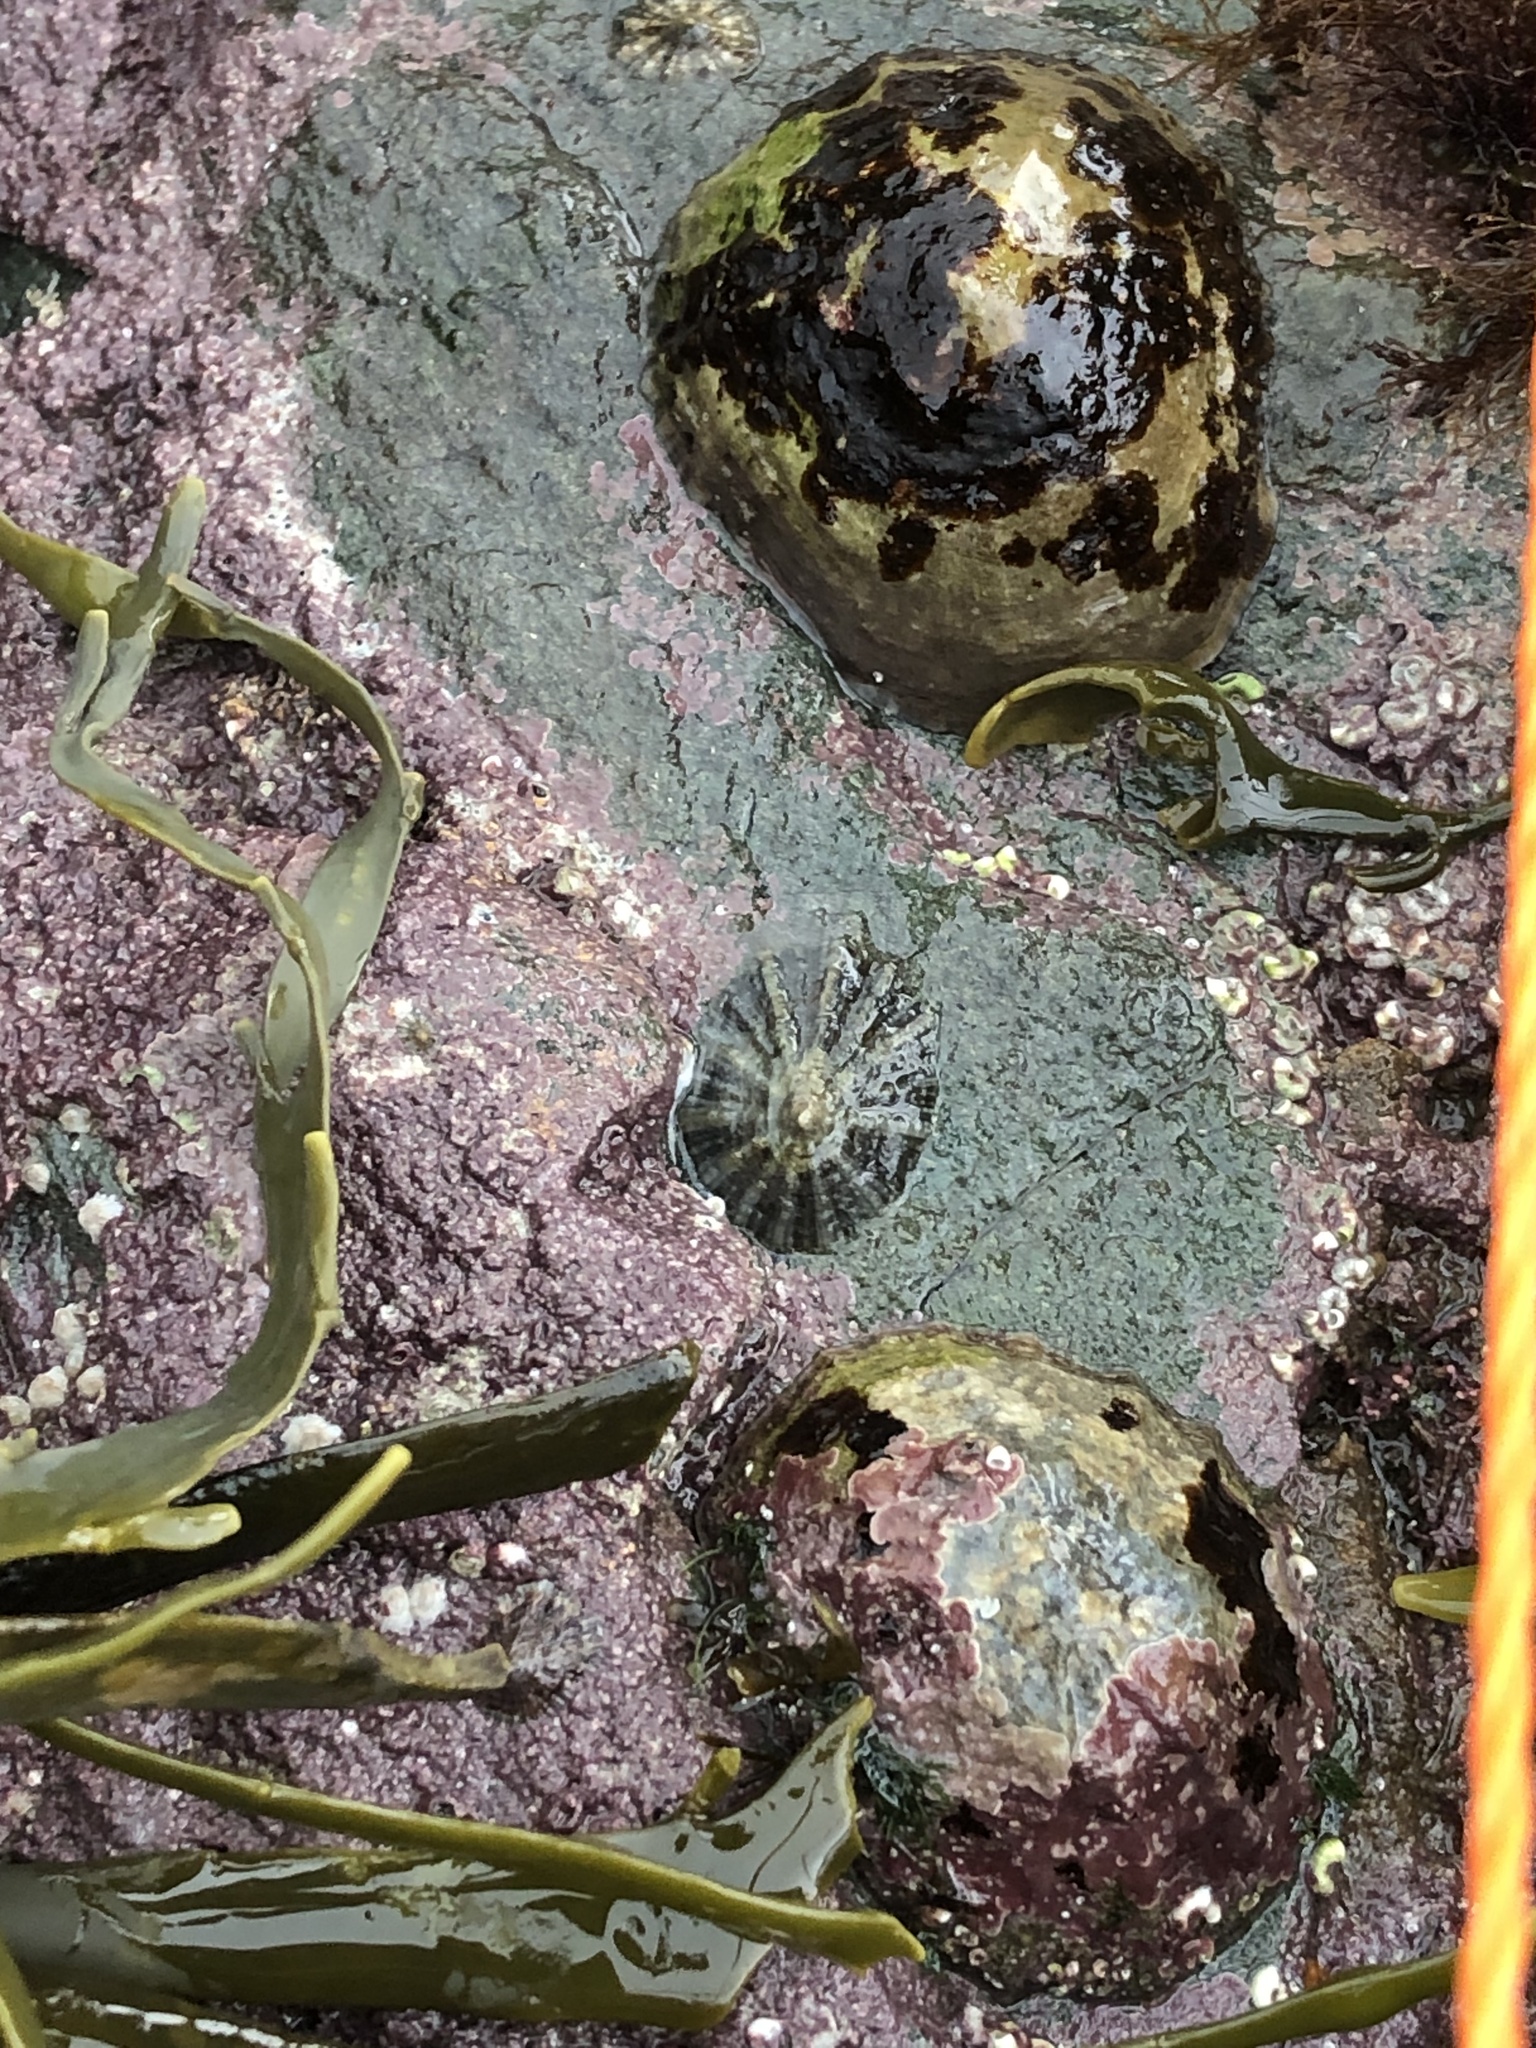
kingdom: Animalia
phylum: Mollusca
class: Gastropoda
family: Patellidae
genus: Patella
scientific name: Patella
